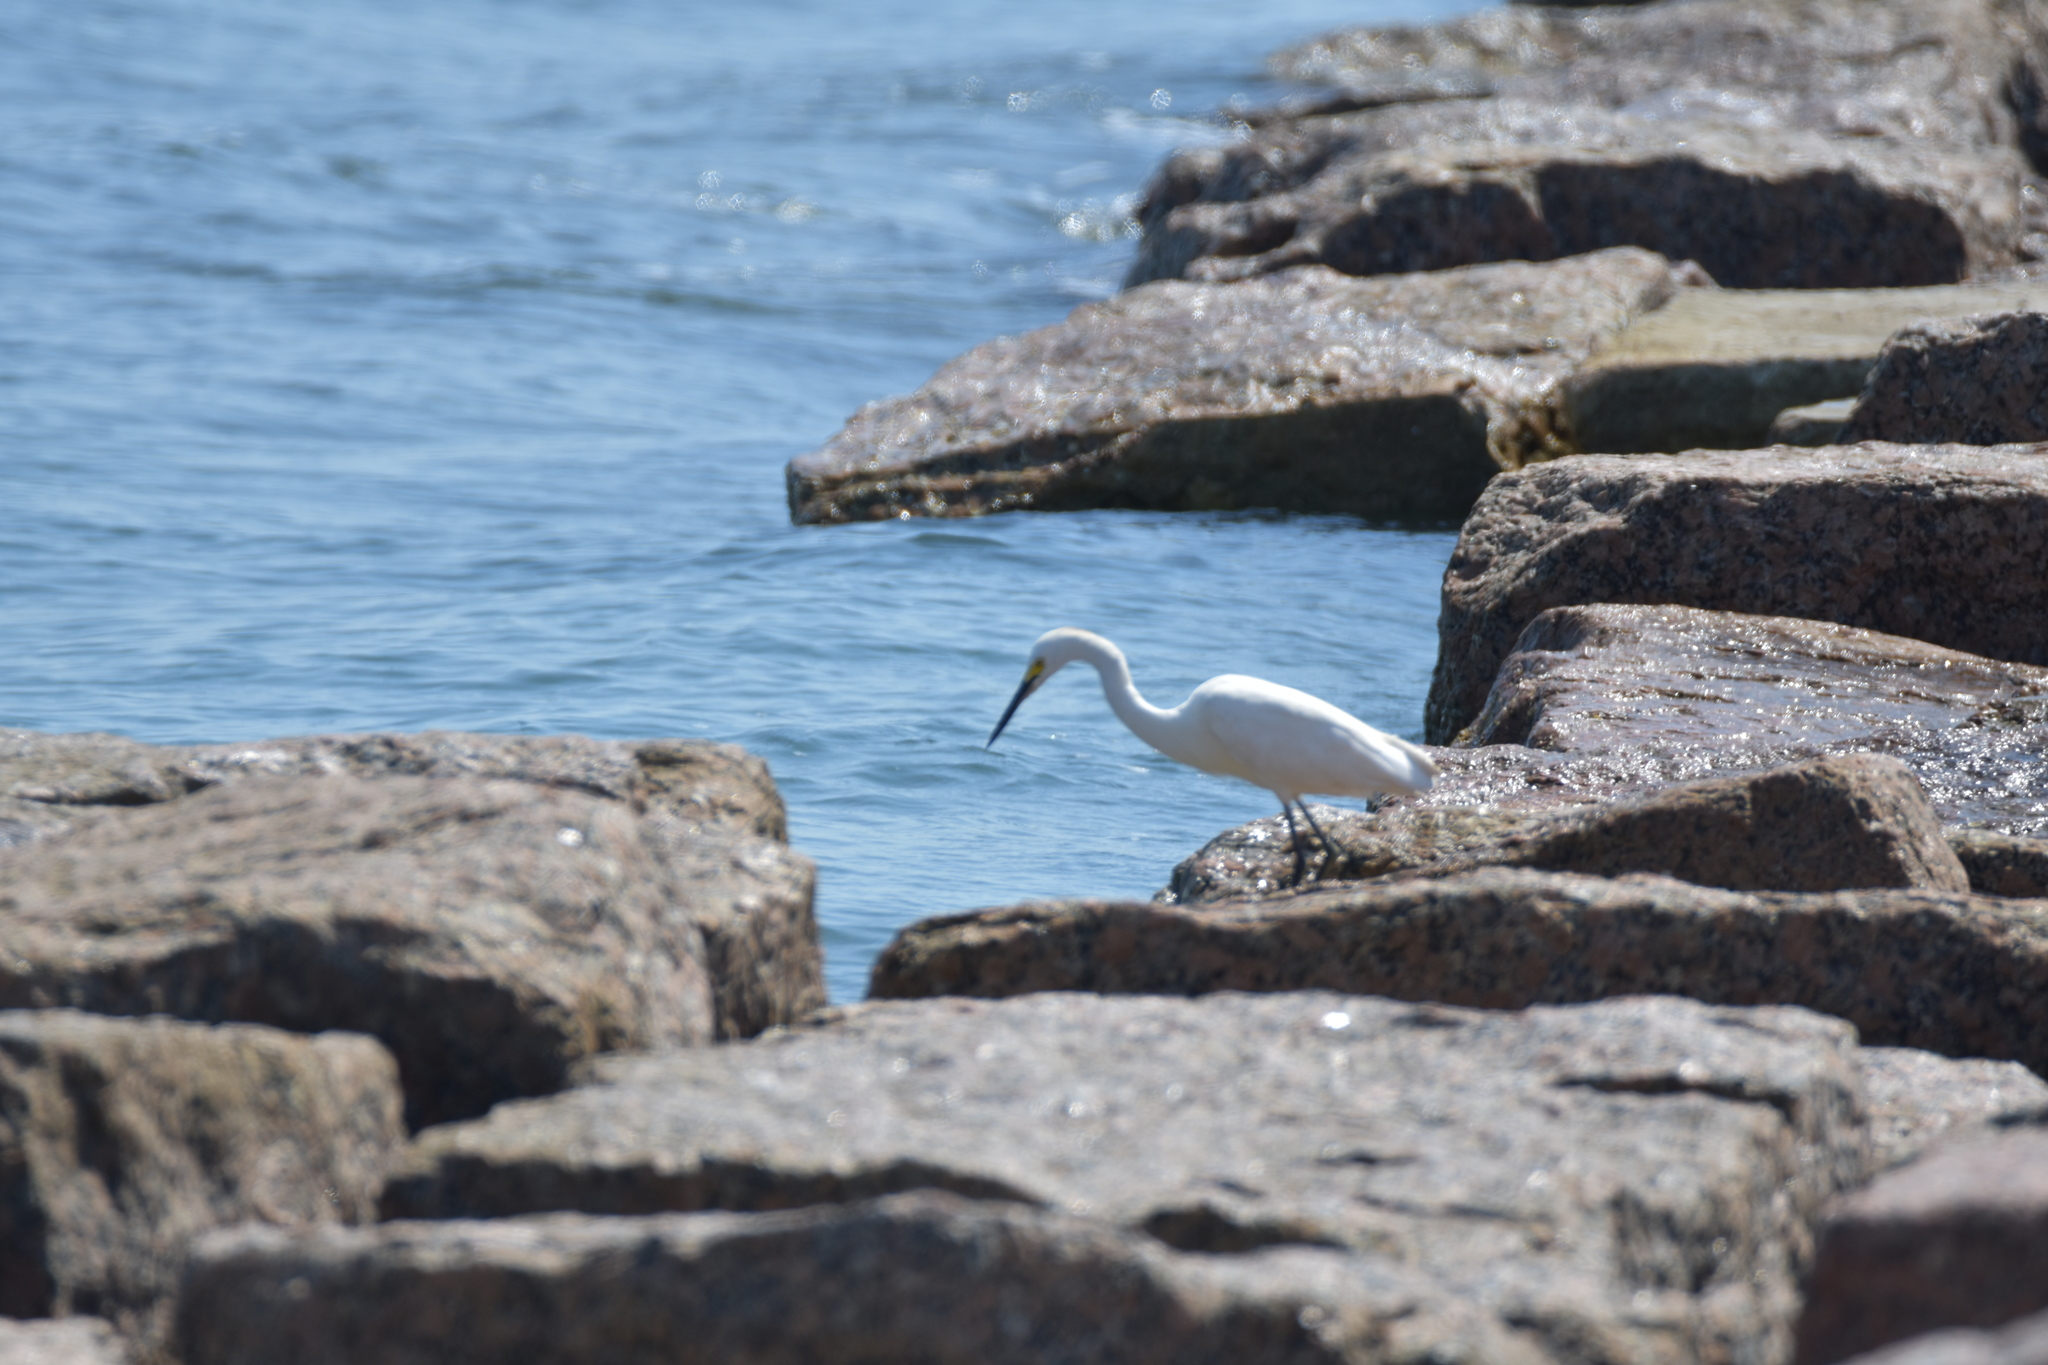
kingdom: Animalia
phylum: Chordata
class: Aves
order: Pelecaniformes
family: Ardeidae
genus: Egretta
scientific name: Egretta thula
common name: Snowy egret
